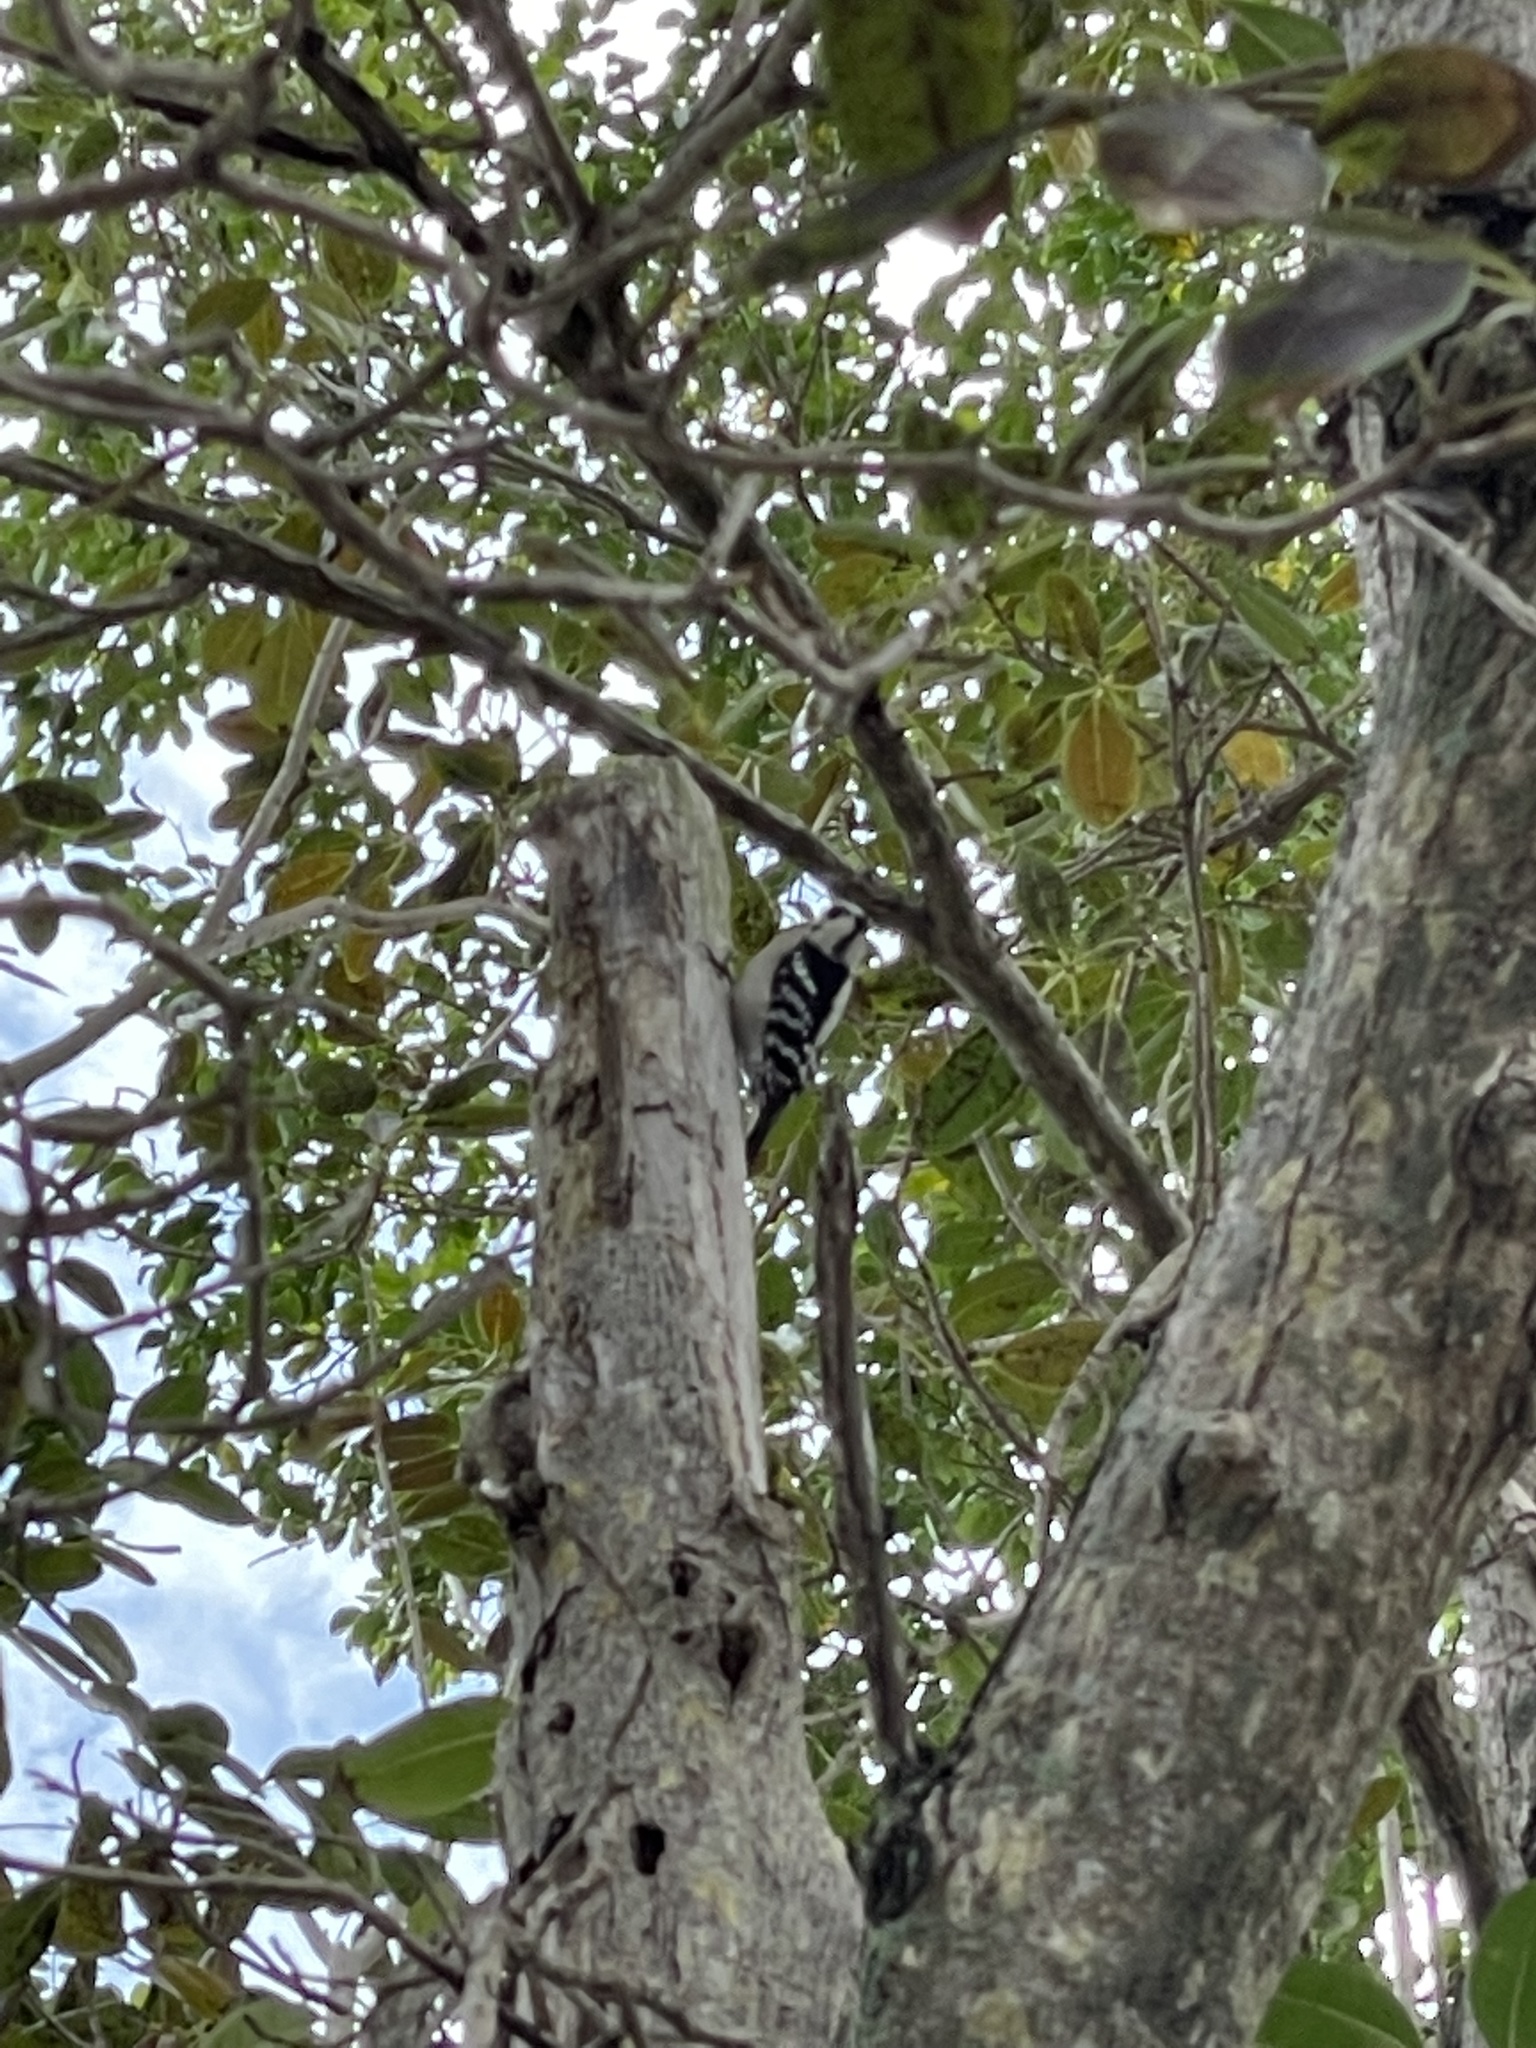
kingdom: Animalia
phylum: Chordata
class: Aves
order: Piciformes
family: Picidae
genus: Dryobates
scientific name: Dryobates pubescens
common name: Downy woodpecker
